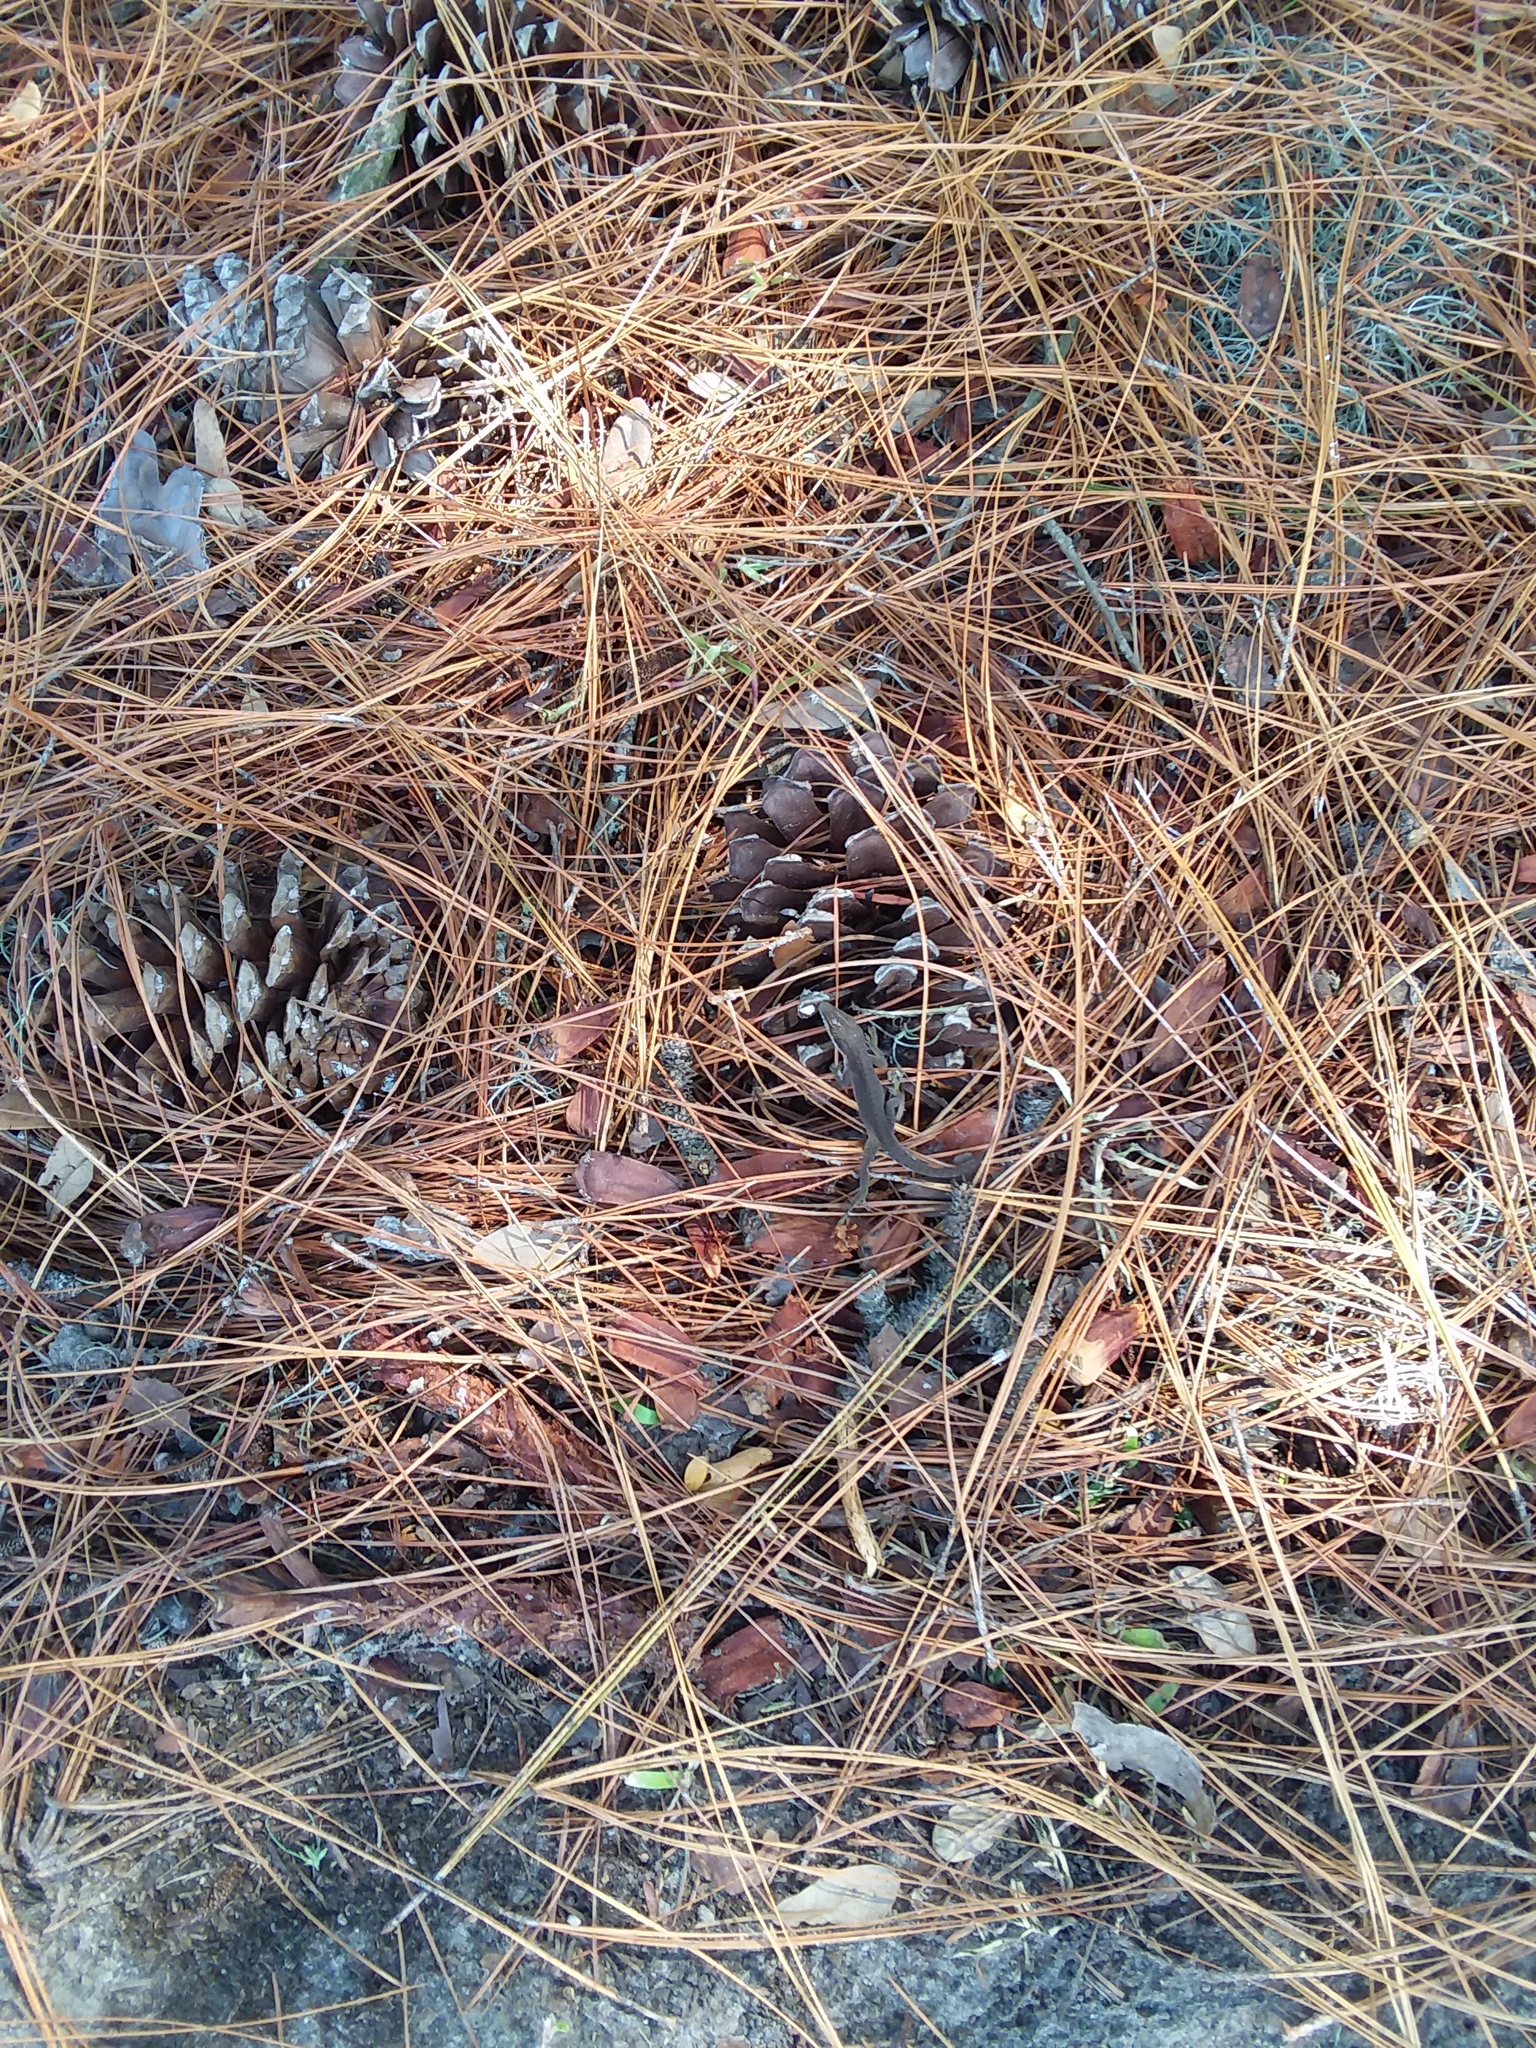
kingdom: Animalia
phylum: Chordata
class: Squamata
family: Dactyloidae
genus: Anolis
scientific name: Anolis carolinensis
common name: Green anole
